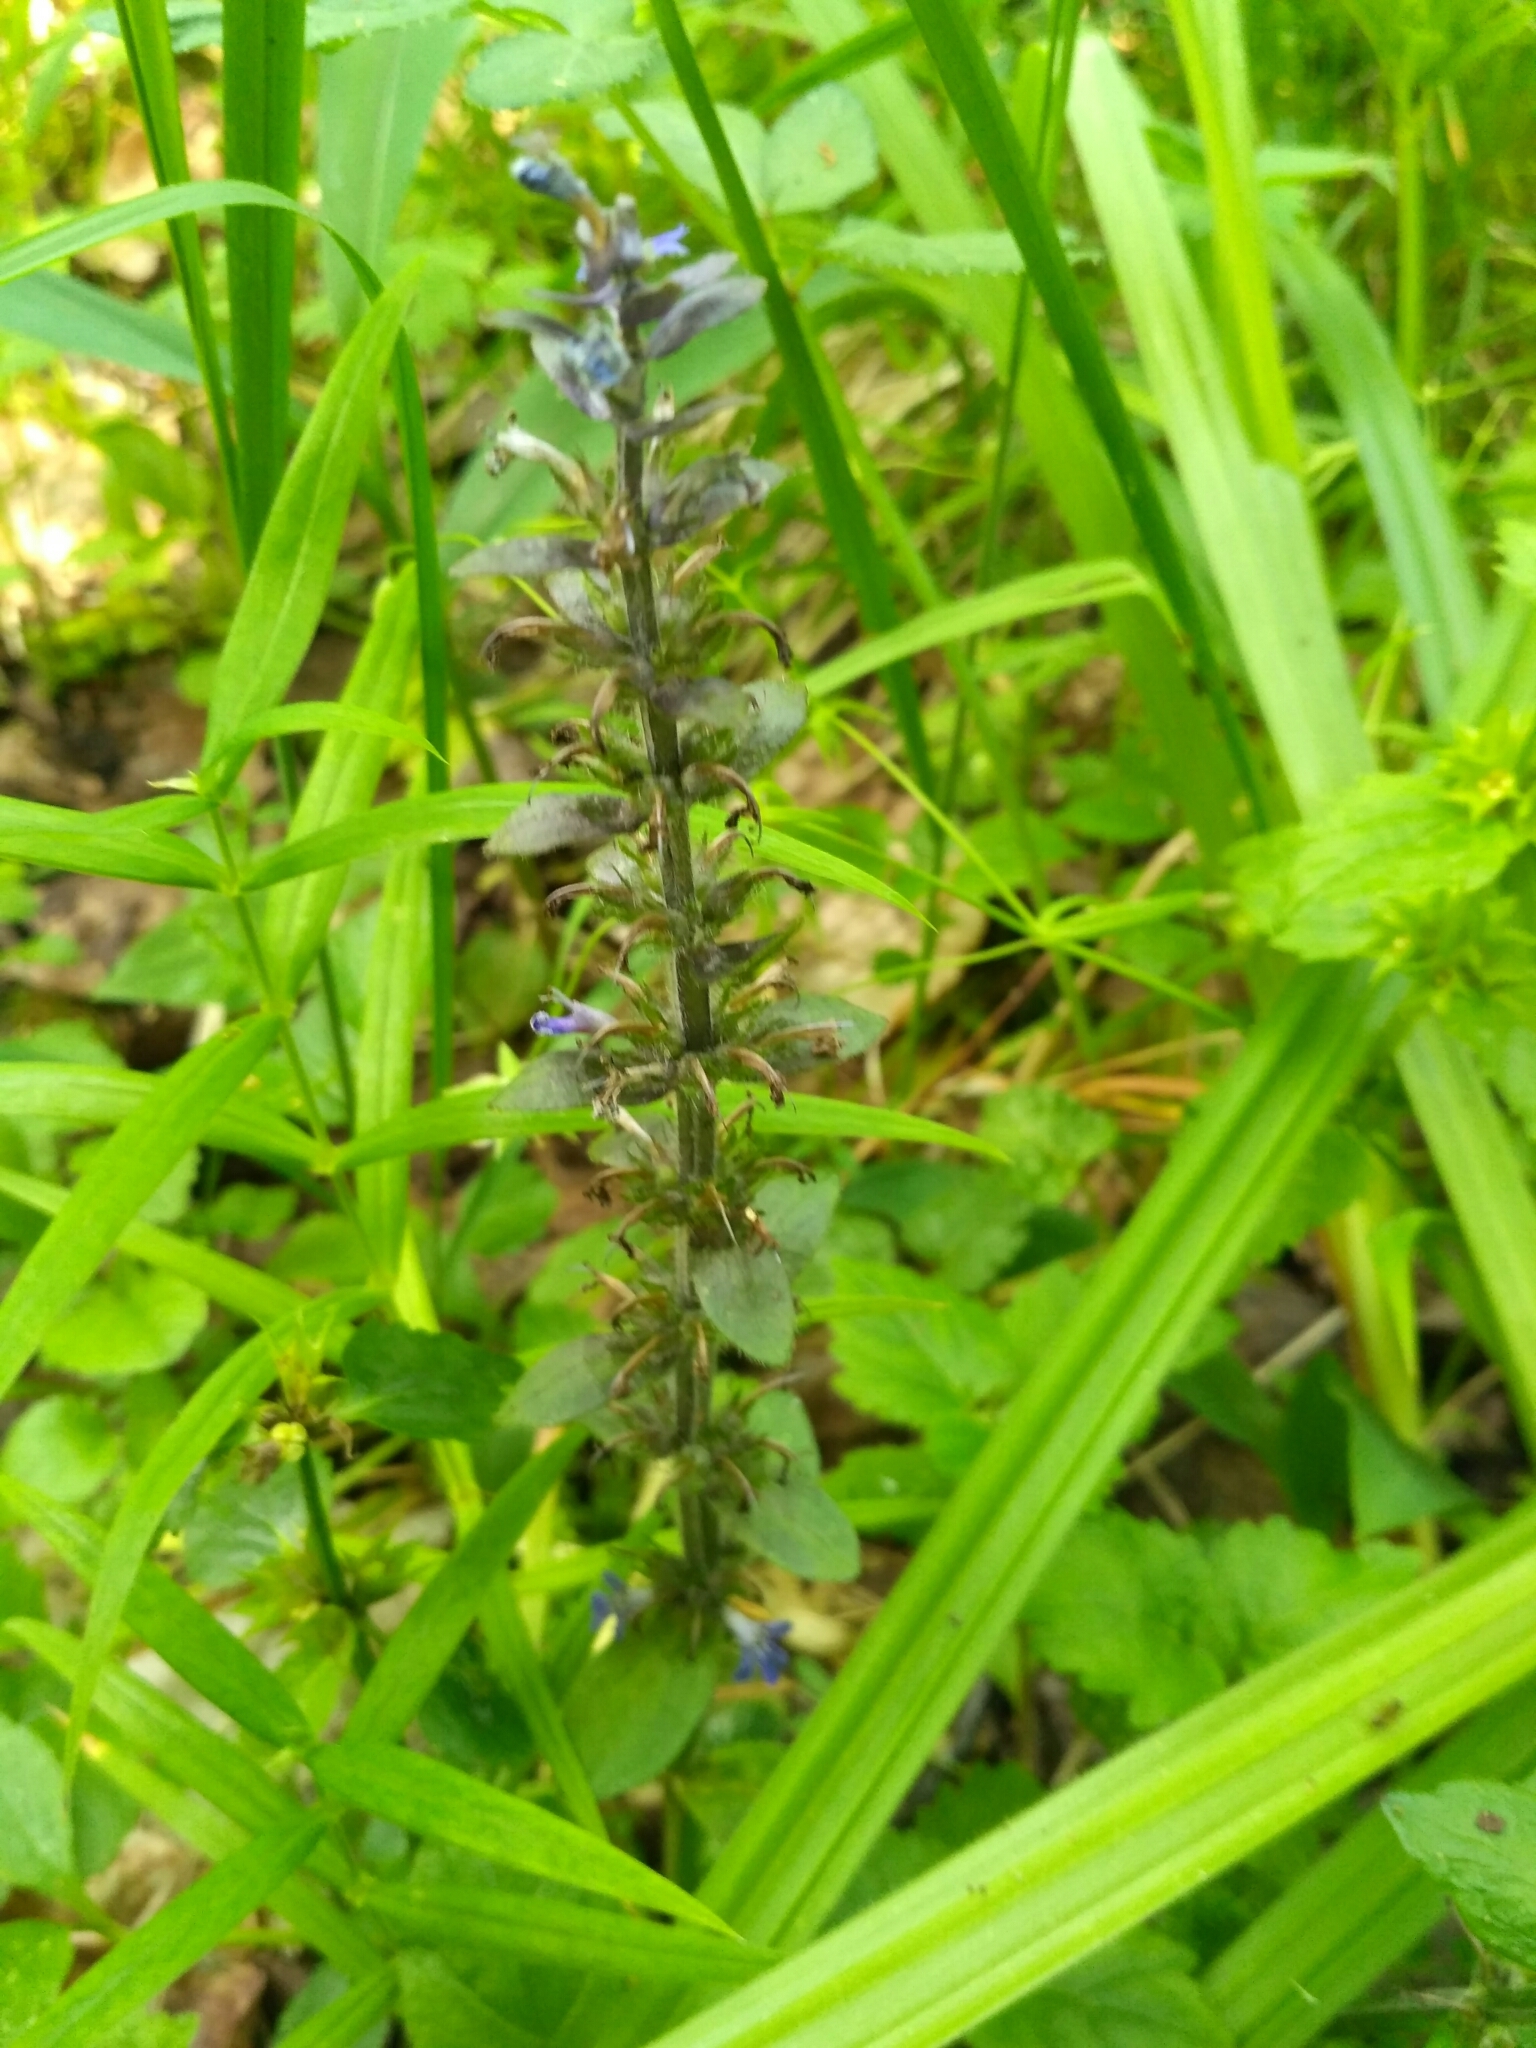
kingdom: Plantae
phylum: Tracheophyta
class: Magnoliopsida
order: Lamiales
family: Lamiaceae
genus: Ajuga
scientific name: Ajuga reptans
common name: Bugle
